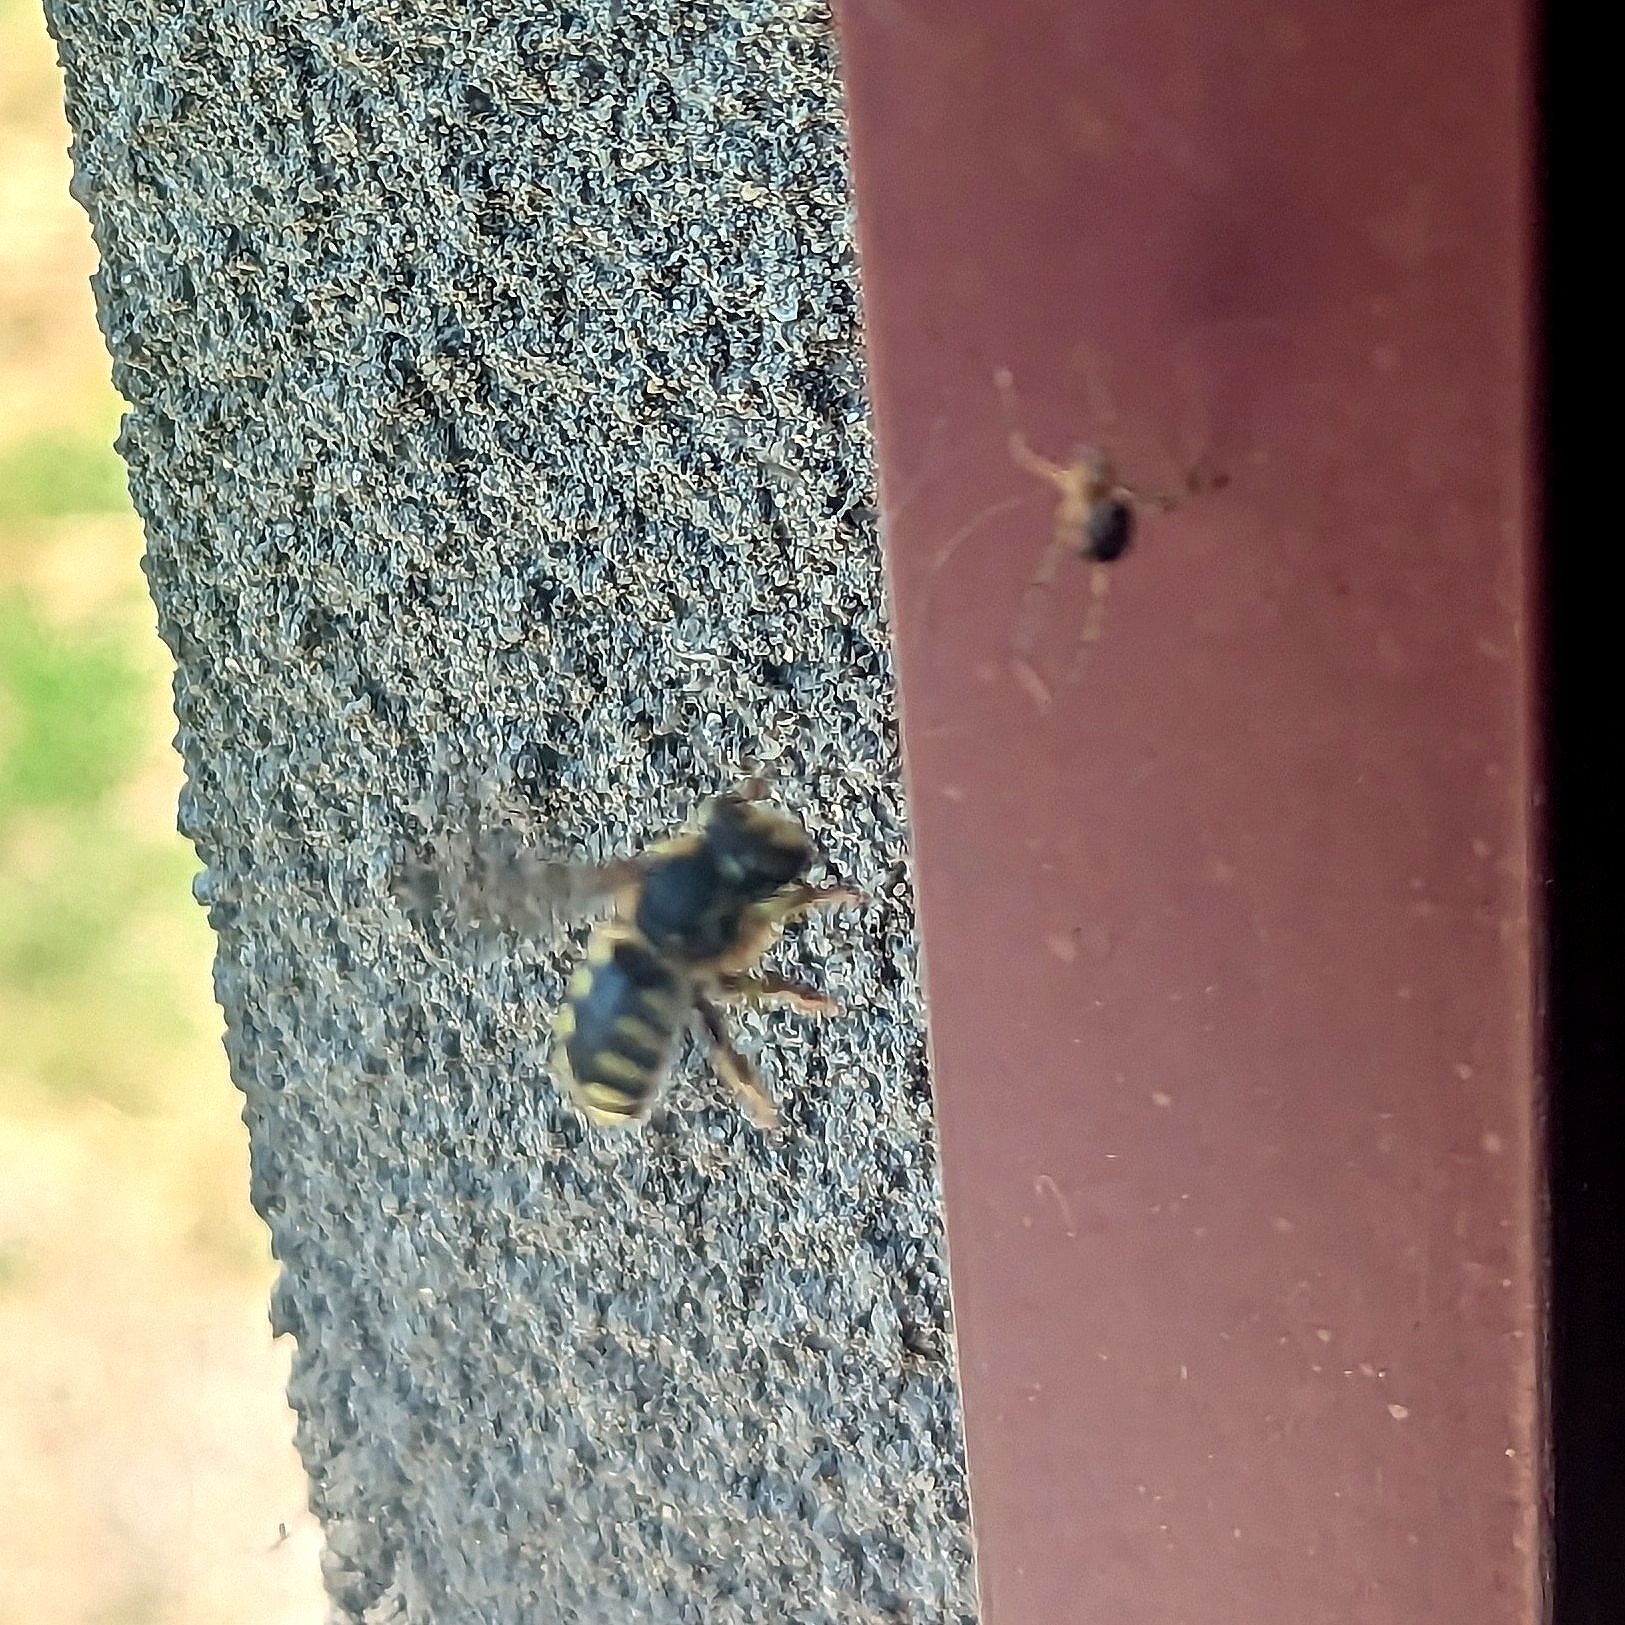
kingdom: Animalia
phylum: Arthropoda
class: Insecta
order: Hymenoptera
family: Megachilidae
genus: Anthidium
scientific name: Anthidium florentinum
